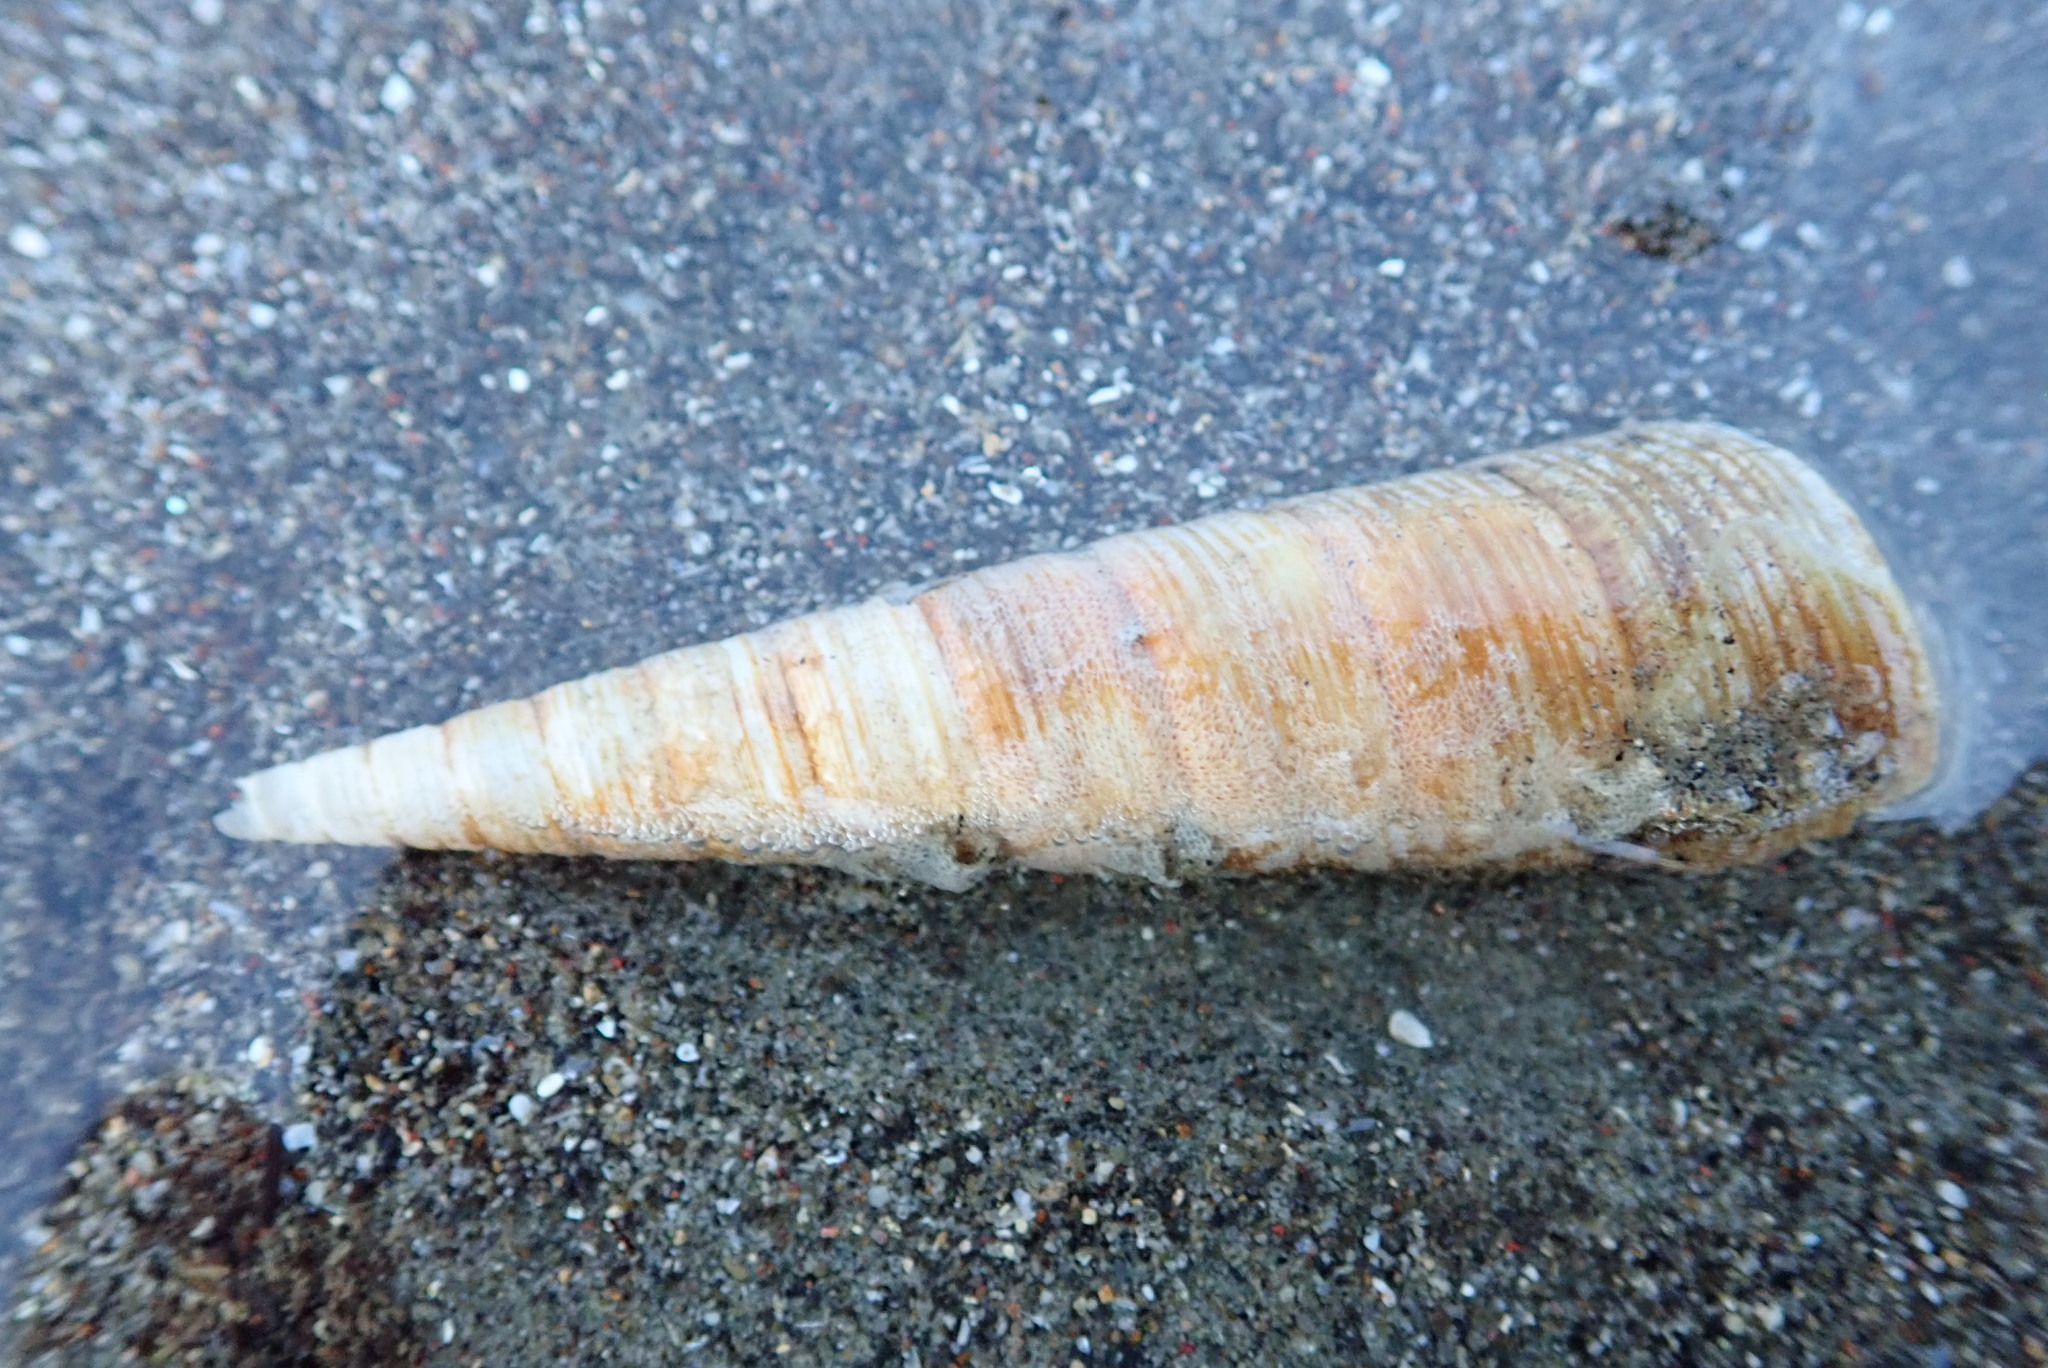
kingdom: Animalia
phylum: Mollusca
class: Gastropoda
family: Turritellidae
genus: Maoricolpus
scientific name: Maoricolpus roseus
